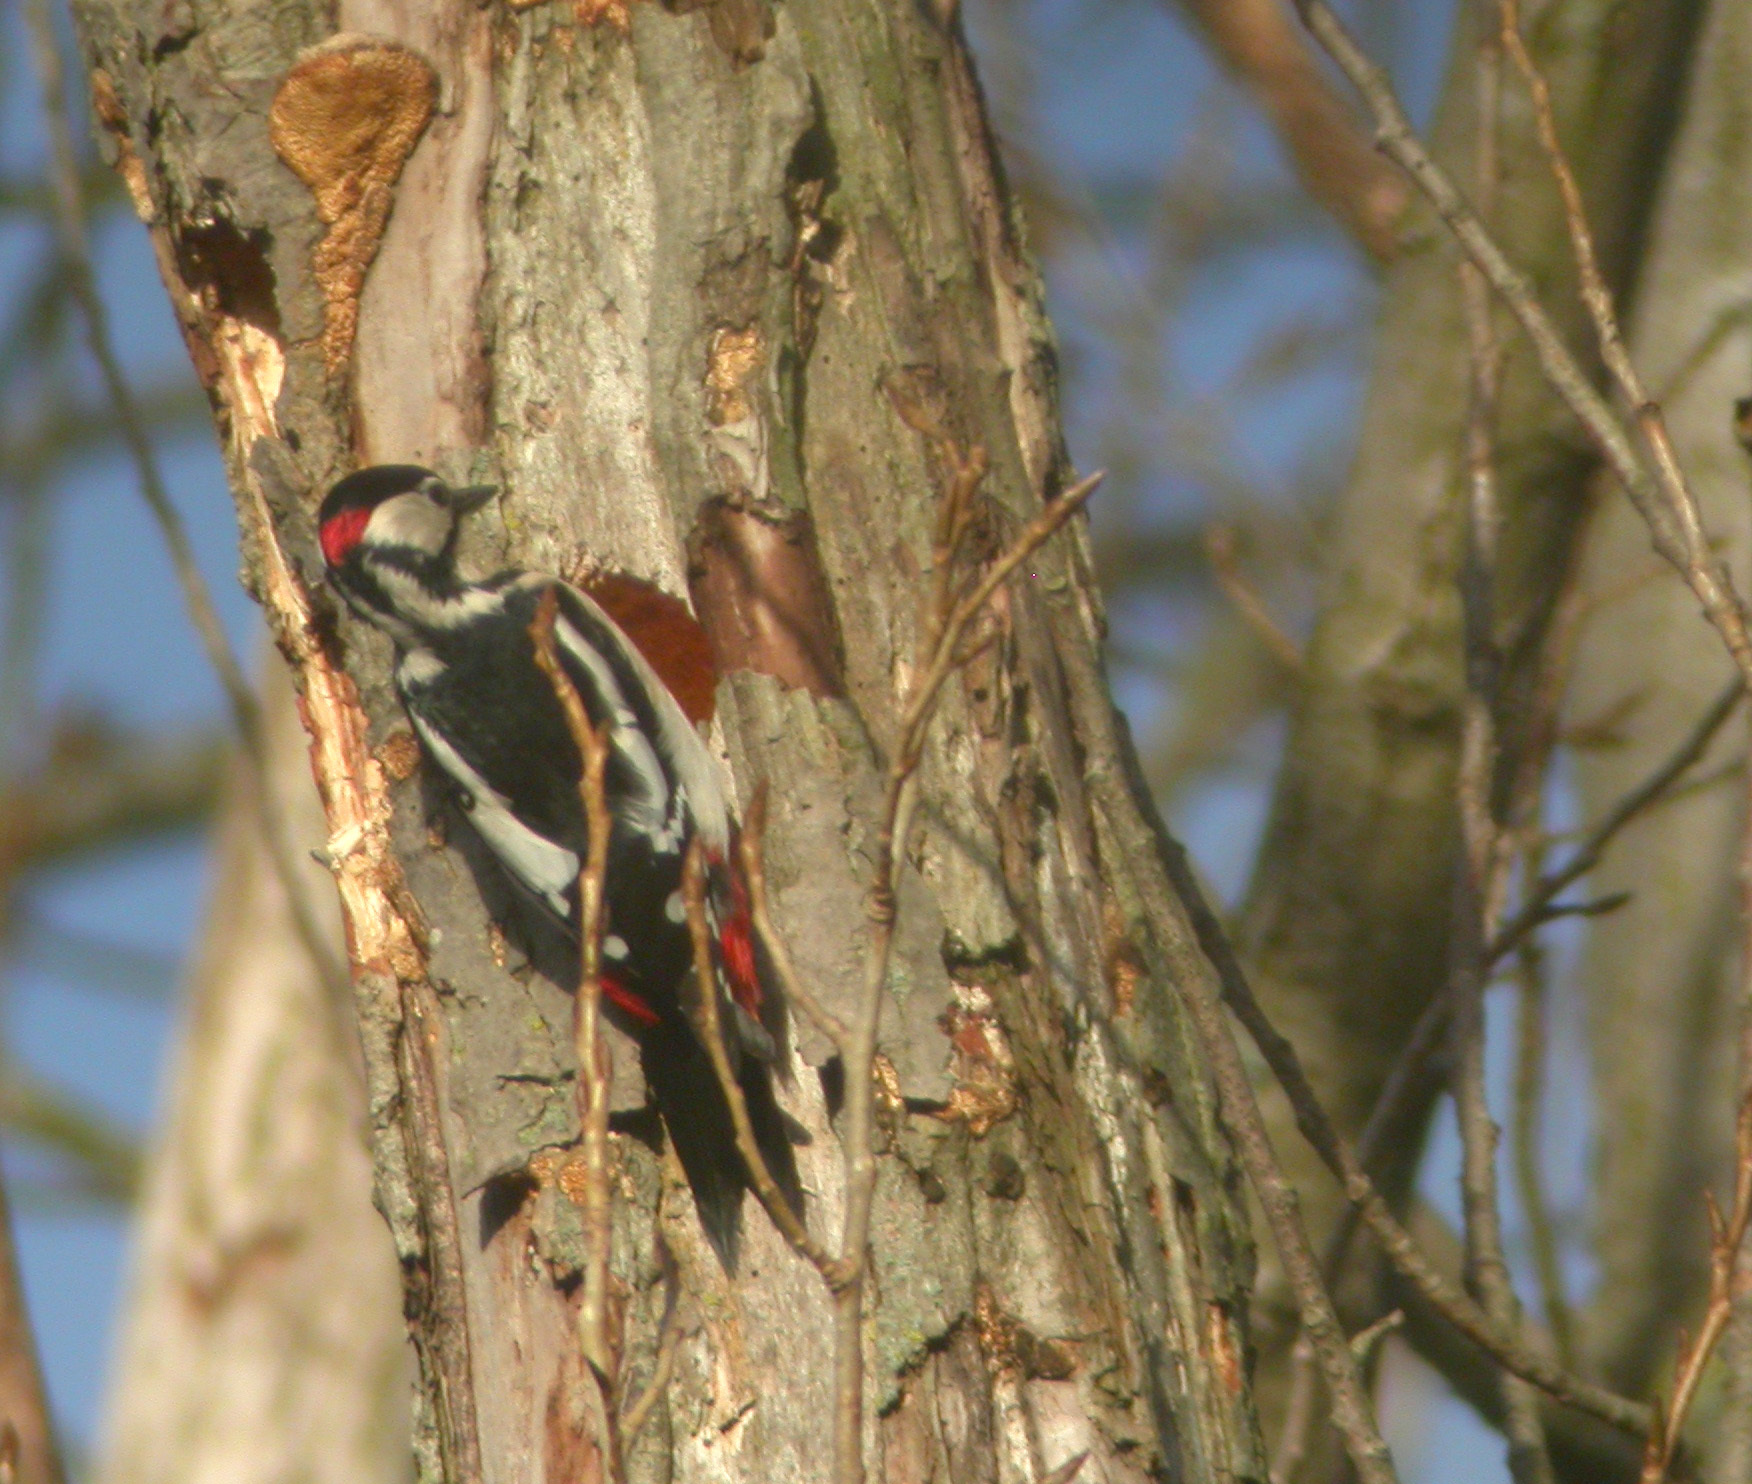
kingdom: Animalia
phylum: Chordata
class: Aves
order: Piciformes
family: Picidae
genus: Dendrocopos
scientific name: Dendrocopos major
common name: Great spotted woodpecker
